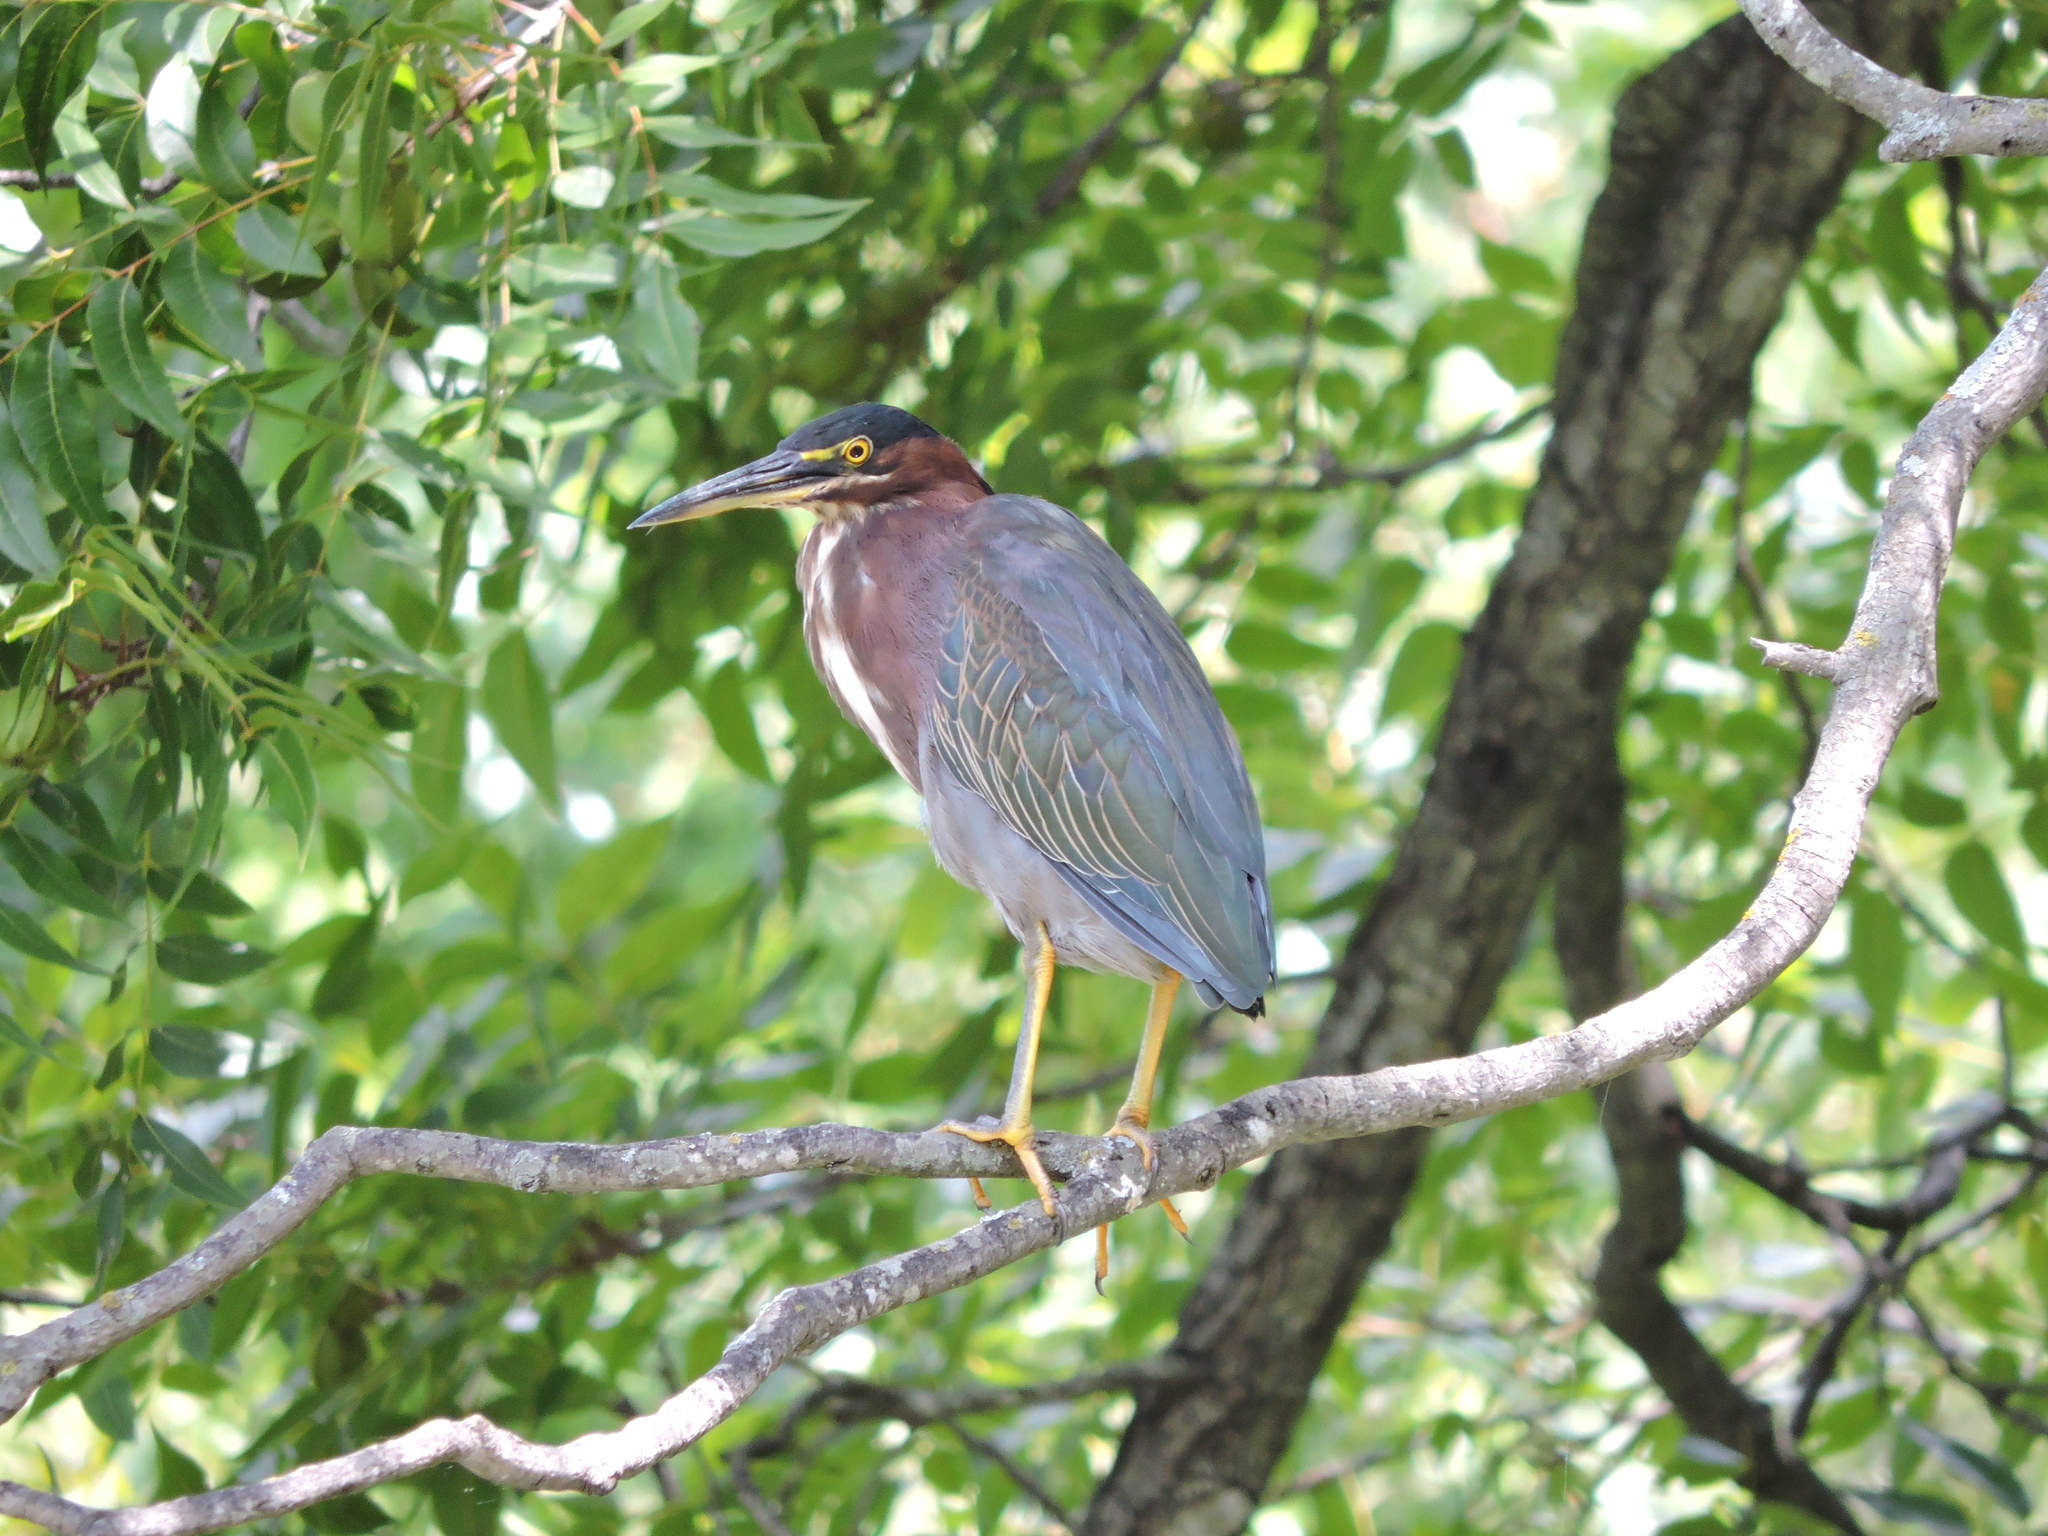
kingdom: Animalia
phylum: Chordata
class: Aves
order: Pelecaniformes
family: Ardeidae
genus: Butorides
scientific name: Butorides virescens
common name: Green heron
